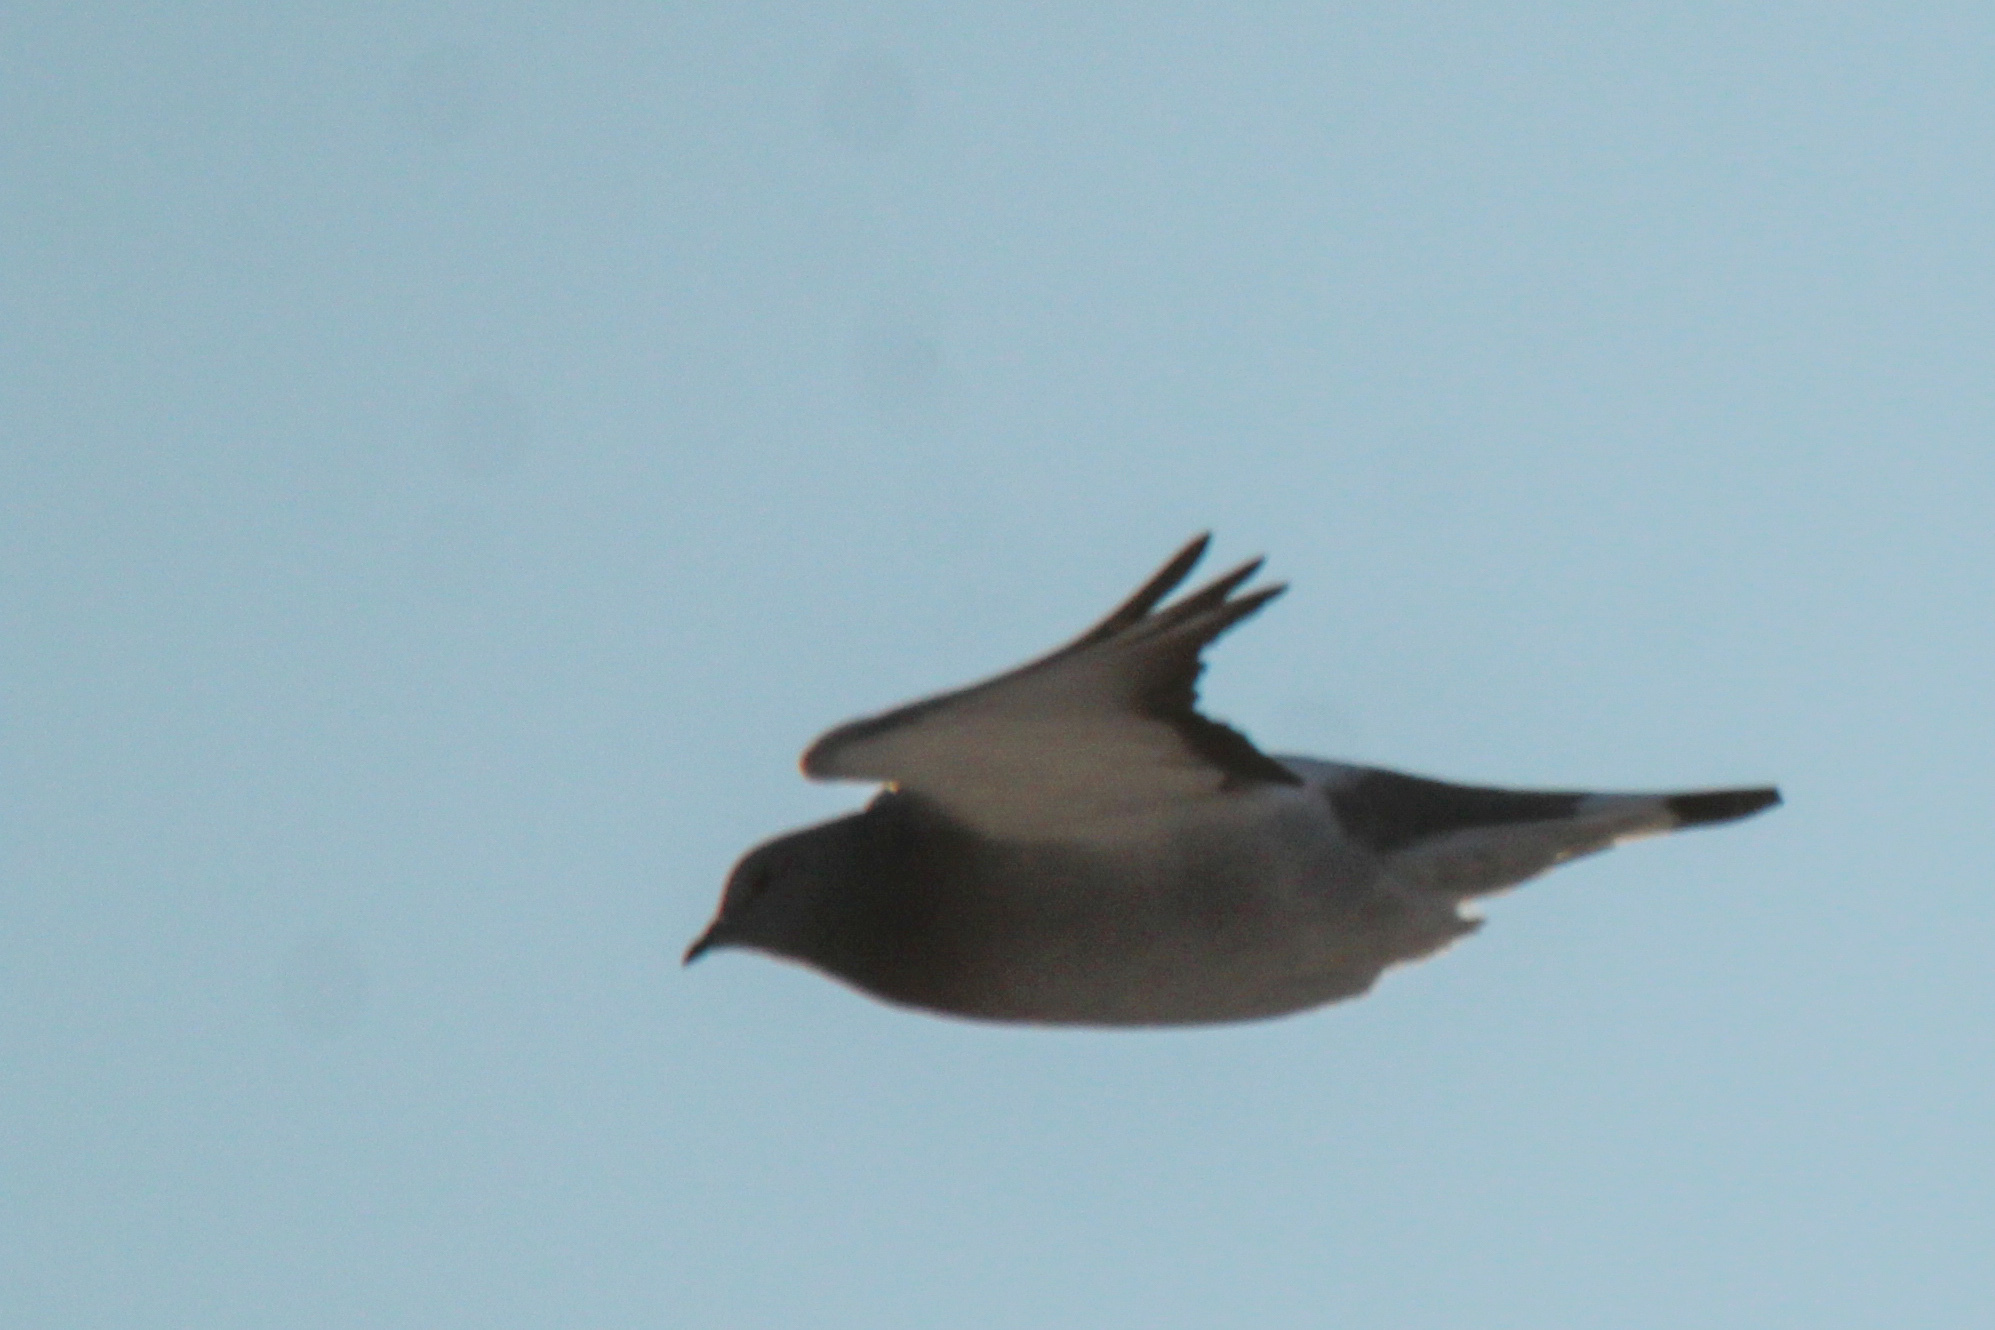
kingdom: Animalia
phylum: Chordata
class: Aves
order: Columbiformes
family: Columbidae
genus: Columba
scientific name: Columba rupestris
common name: Hill pigeon
